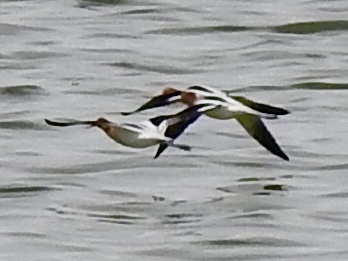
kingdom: Animalia
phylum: Chordata
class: Aves
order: Charadriiformes
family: Recurvirostridae
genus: Recurvirostra
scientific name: Recurvirostra americana
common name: American avocet
